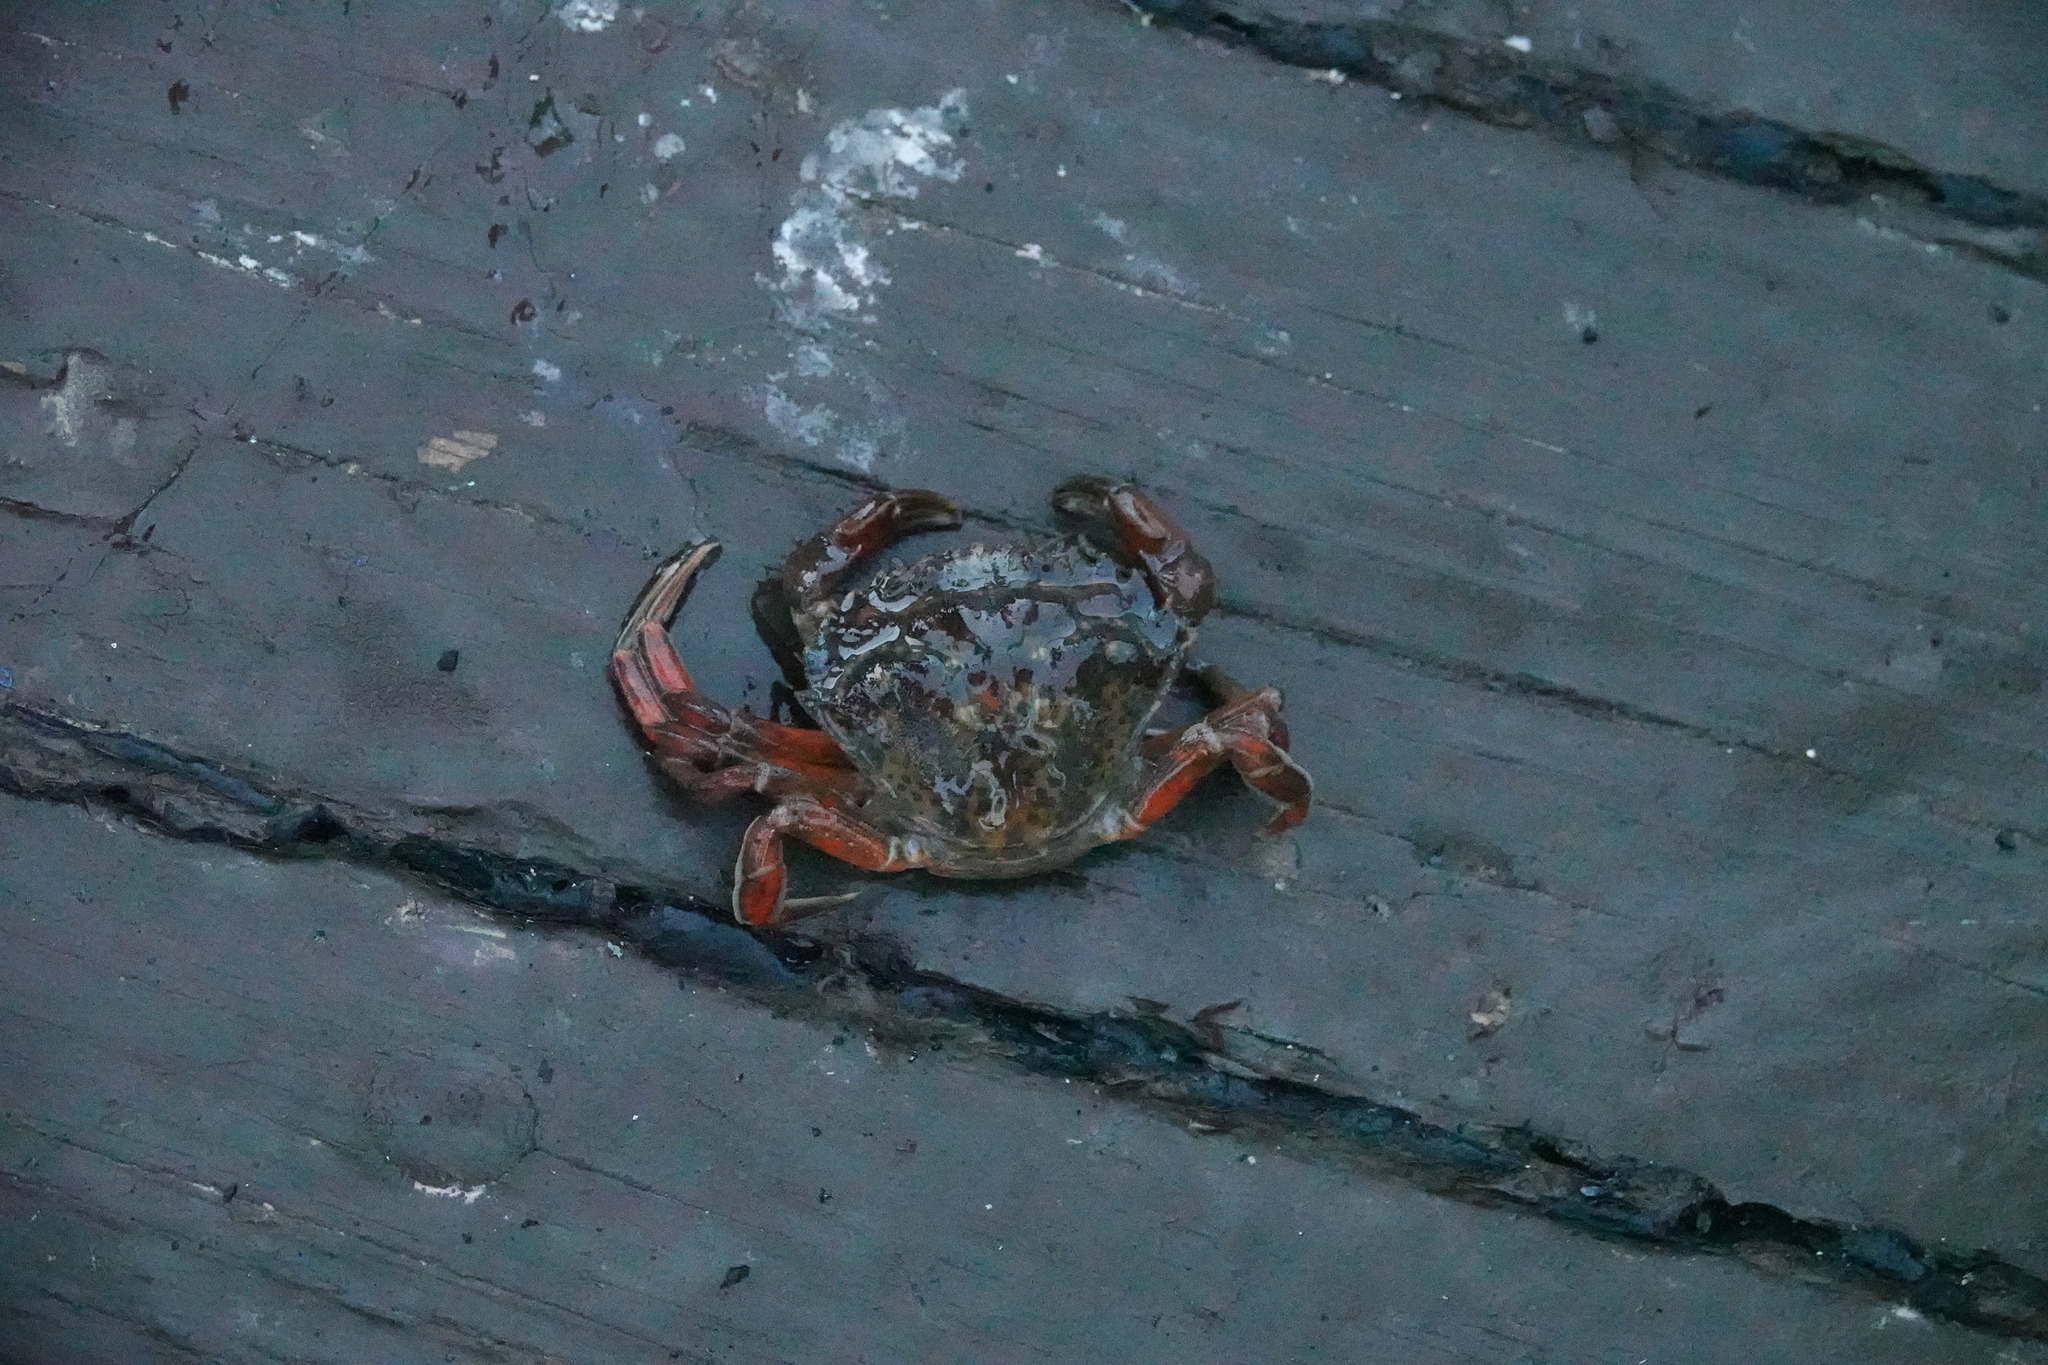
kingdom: Animalia
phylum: Arthropoda
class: Malacostraca
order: Decapoda
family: Carcinidae
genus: Carcinus
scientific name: Carcinus maenas
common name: European green crab
